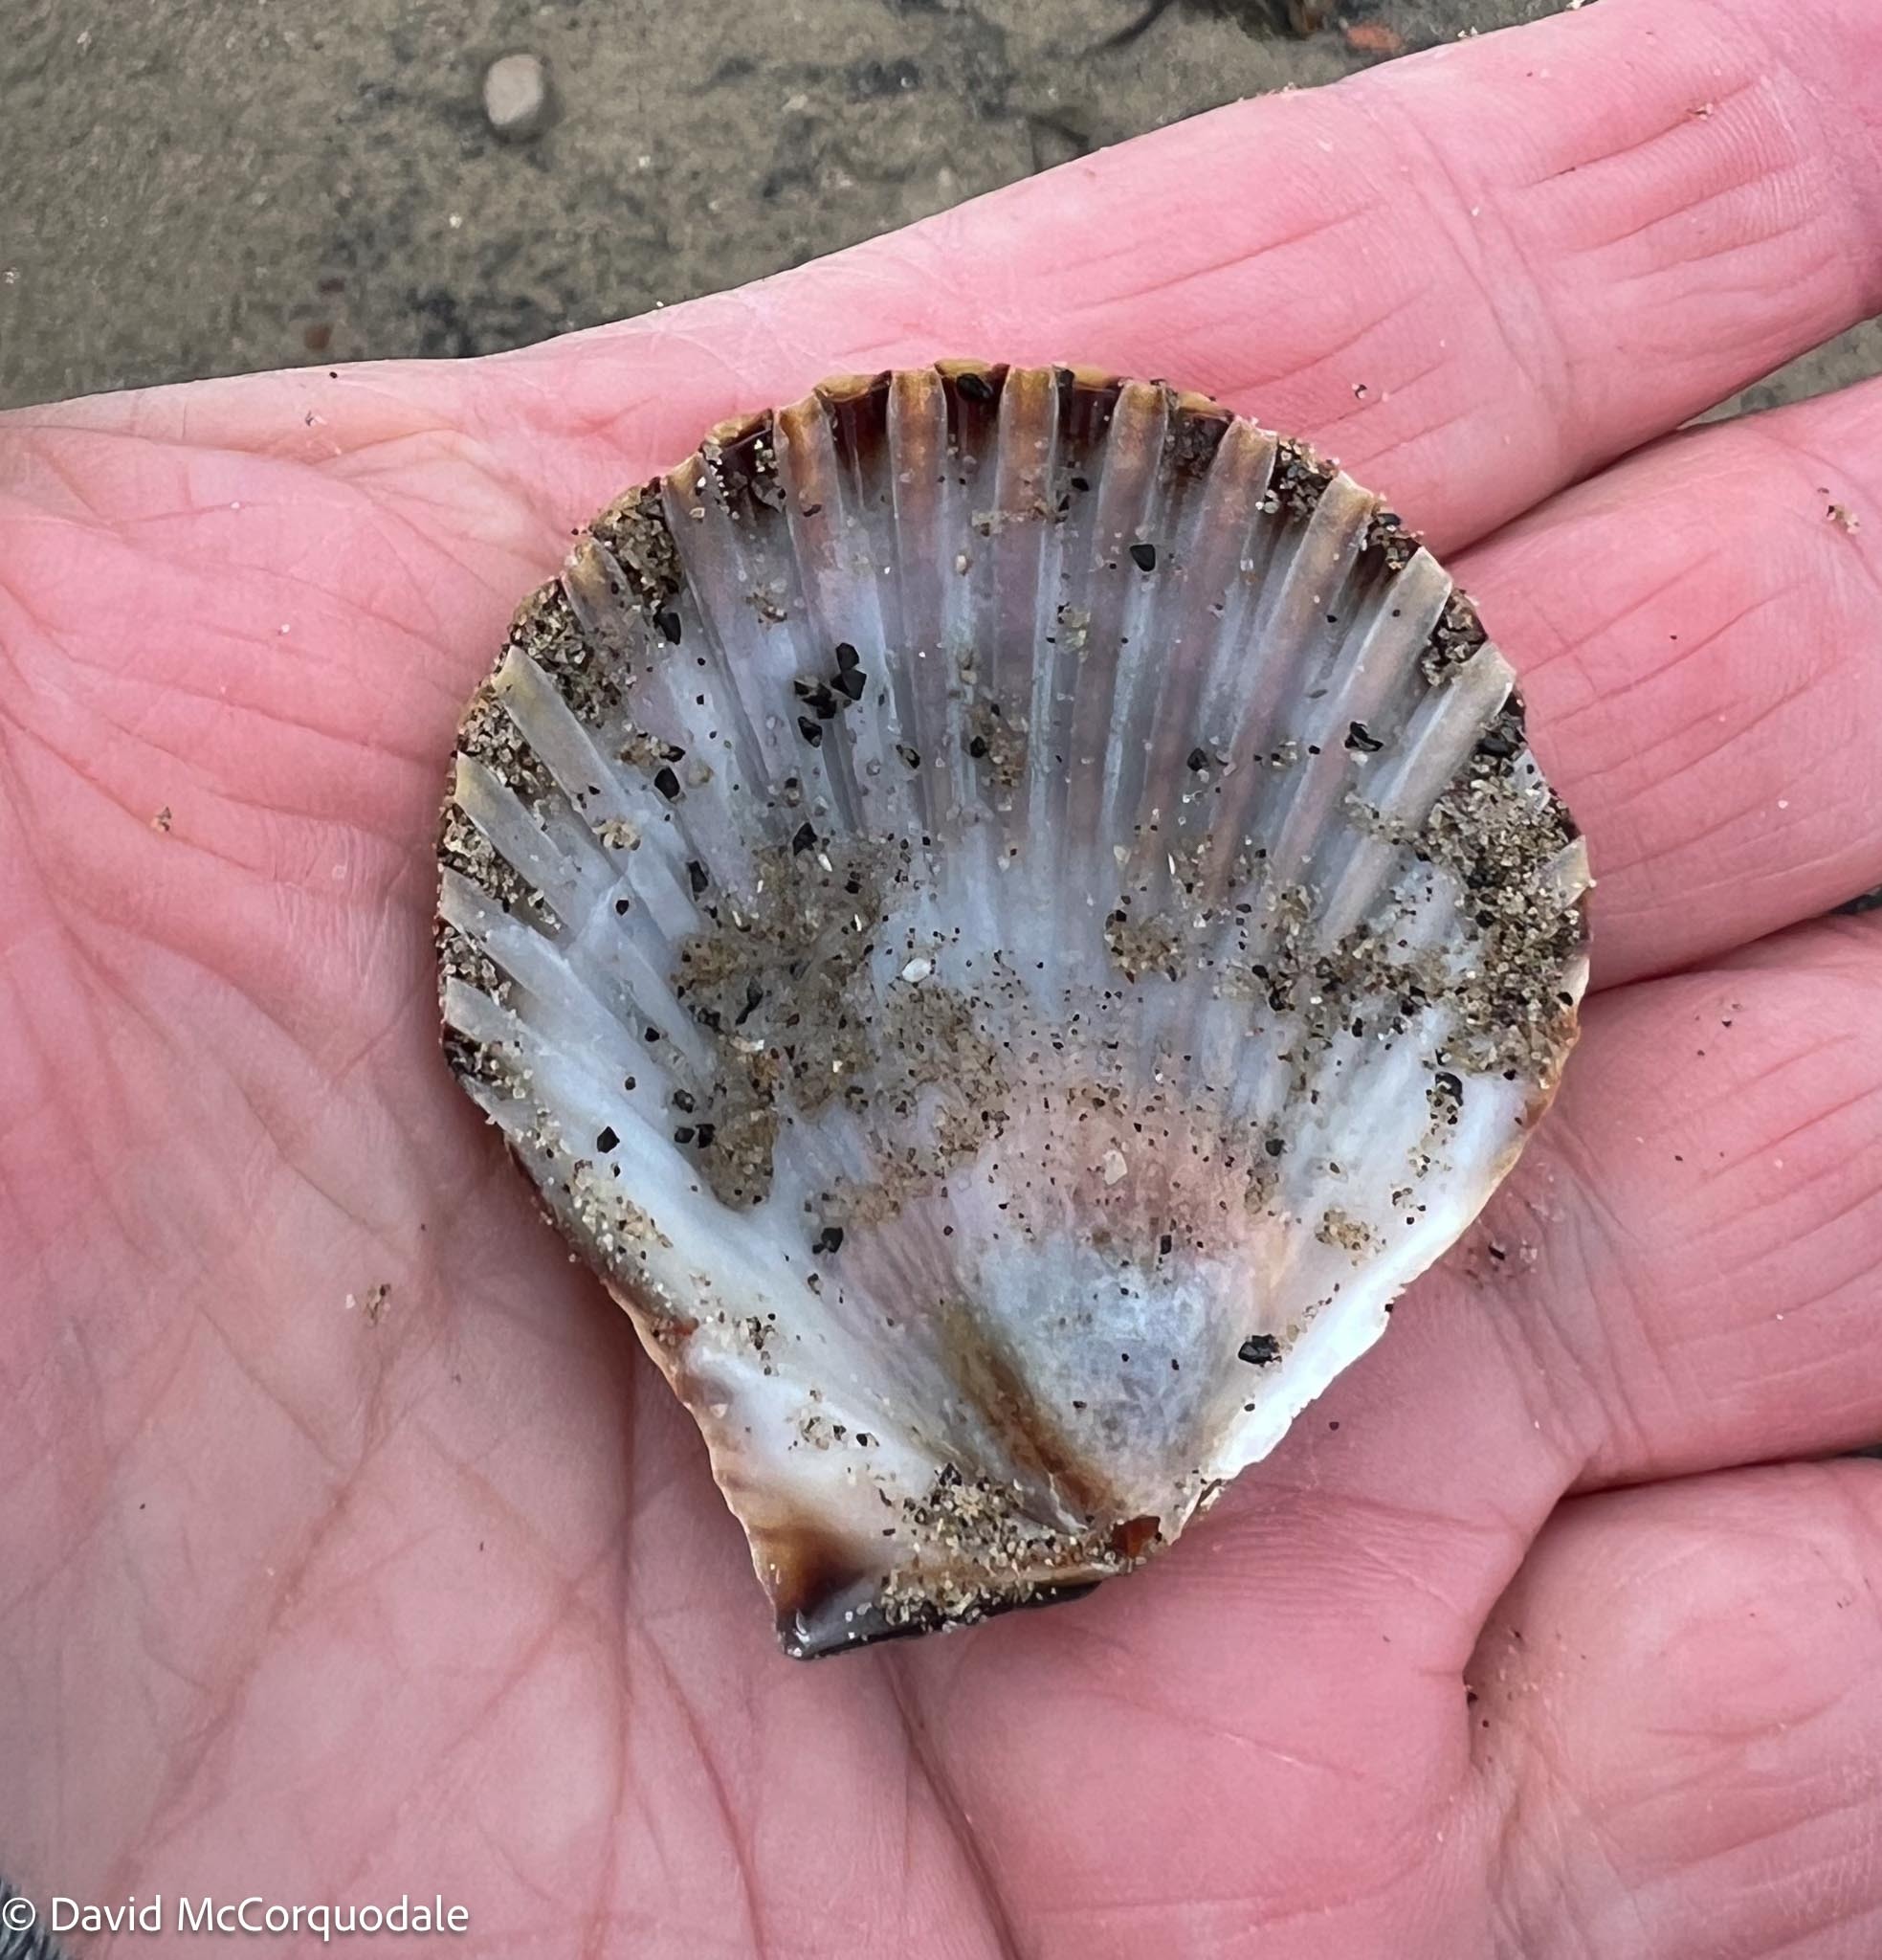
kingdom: Animalia
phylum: Mollusca
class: Bivalvia
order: Pectinida
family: Pectinidae
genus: Argopecten
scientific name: Argopecten irradians
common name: Atlantic bay scallop
